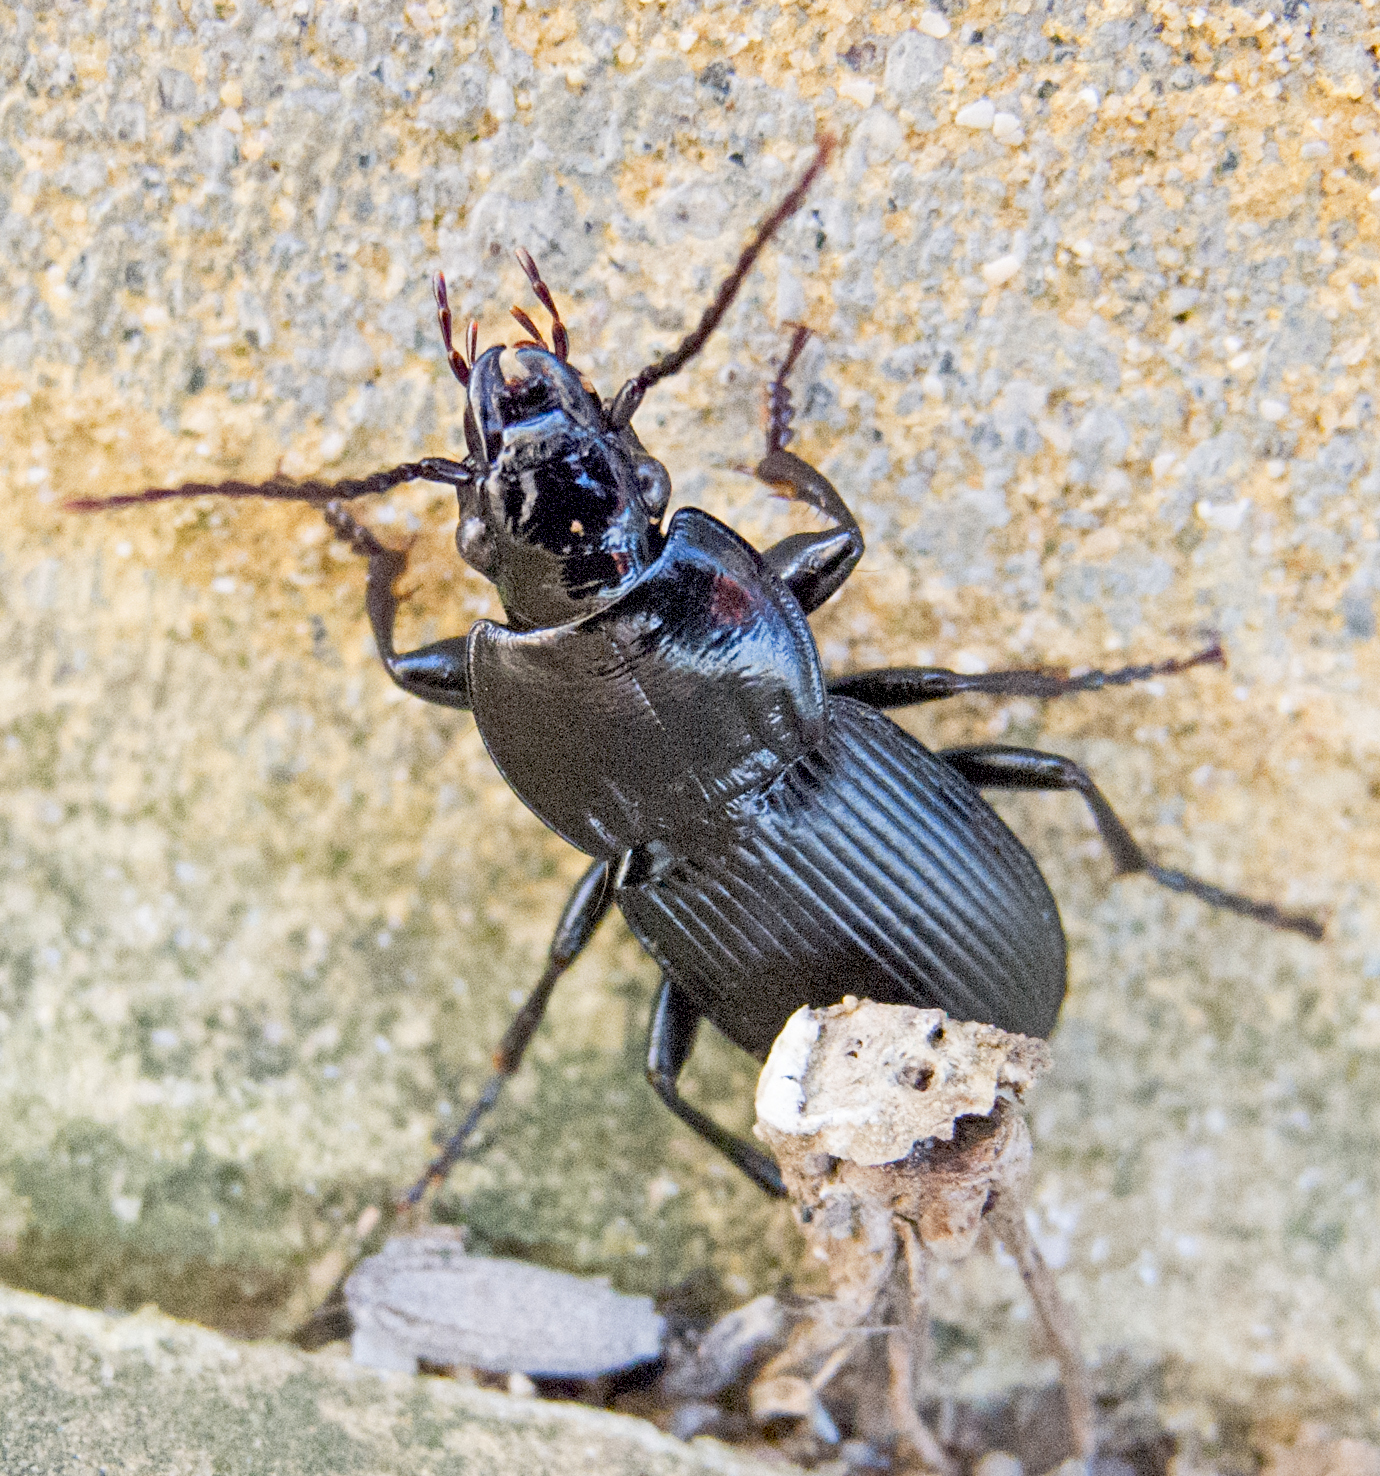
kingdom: Animalia
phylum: Arthropoda
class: Insecta
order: Coleoptera
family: Carabidae
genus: Pterostichus
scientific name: Pterostichus melas
